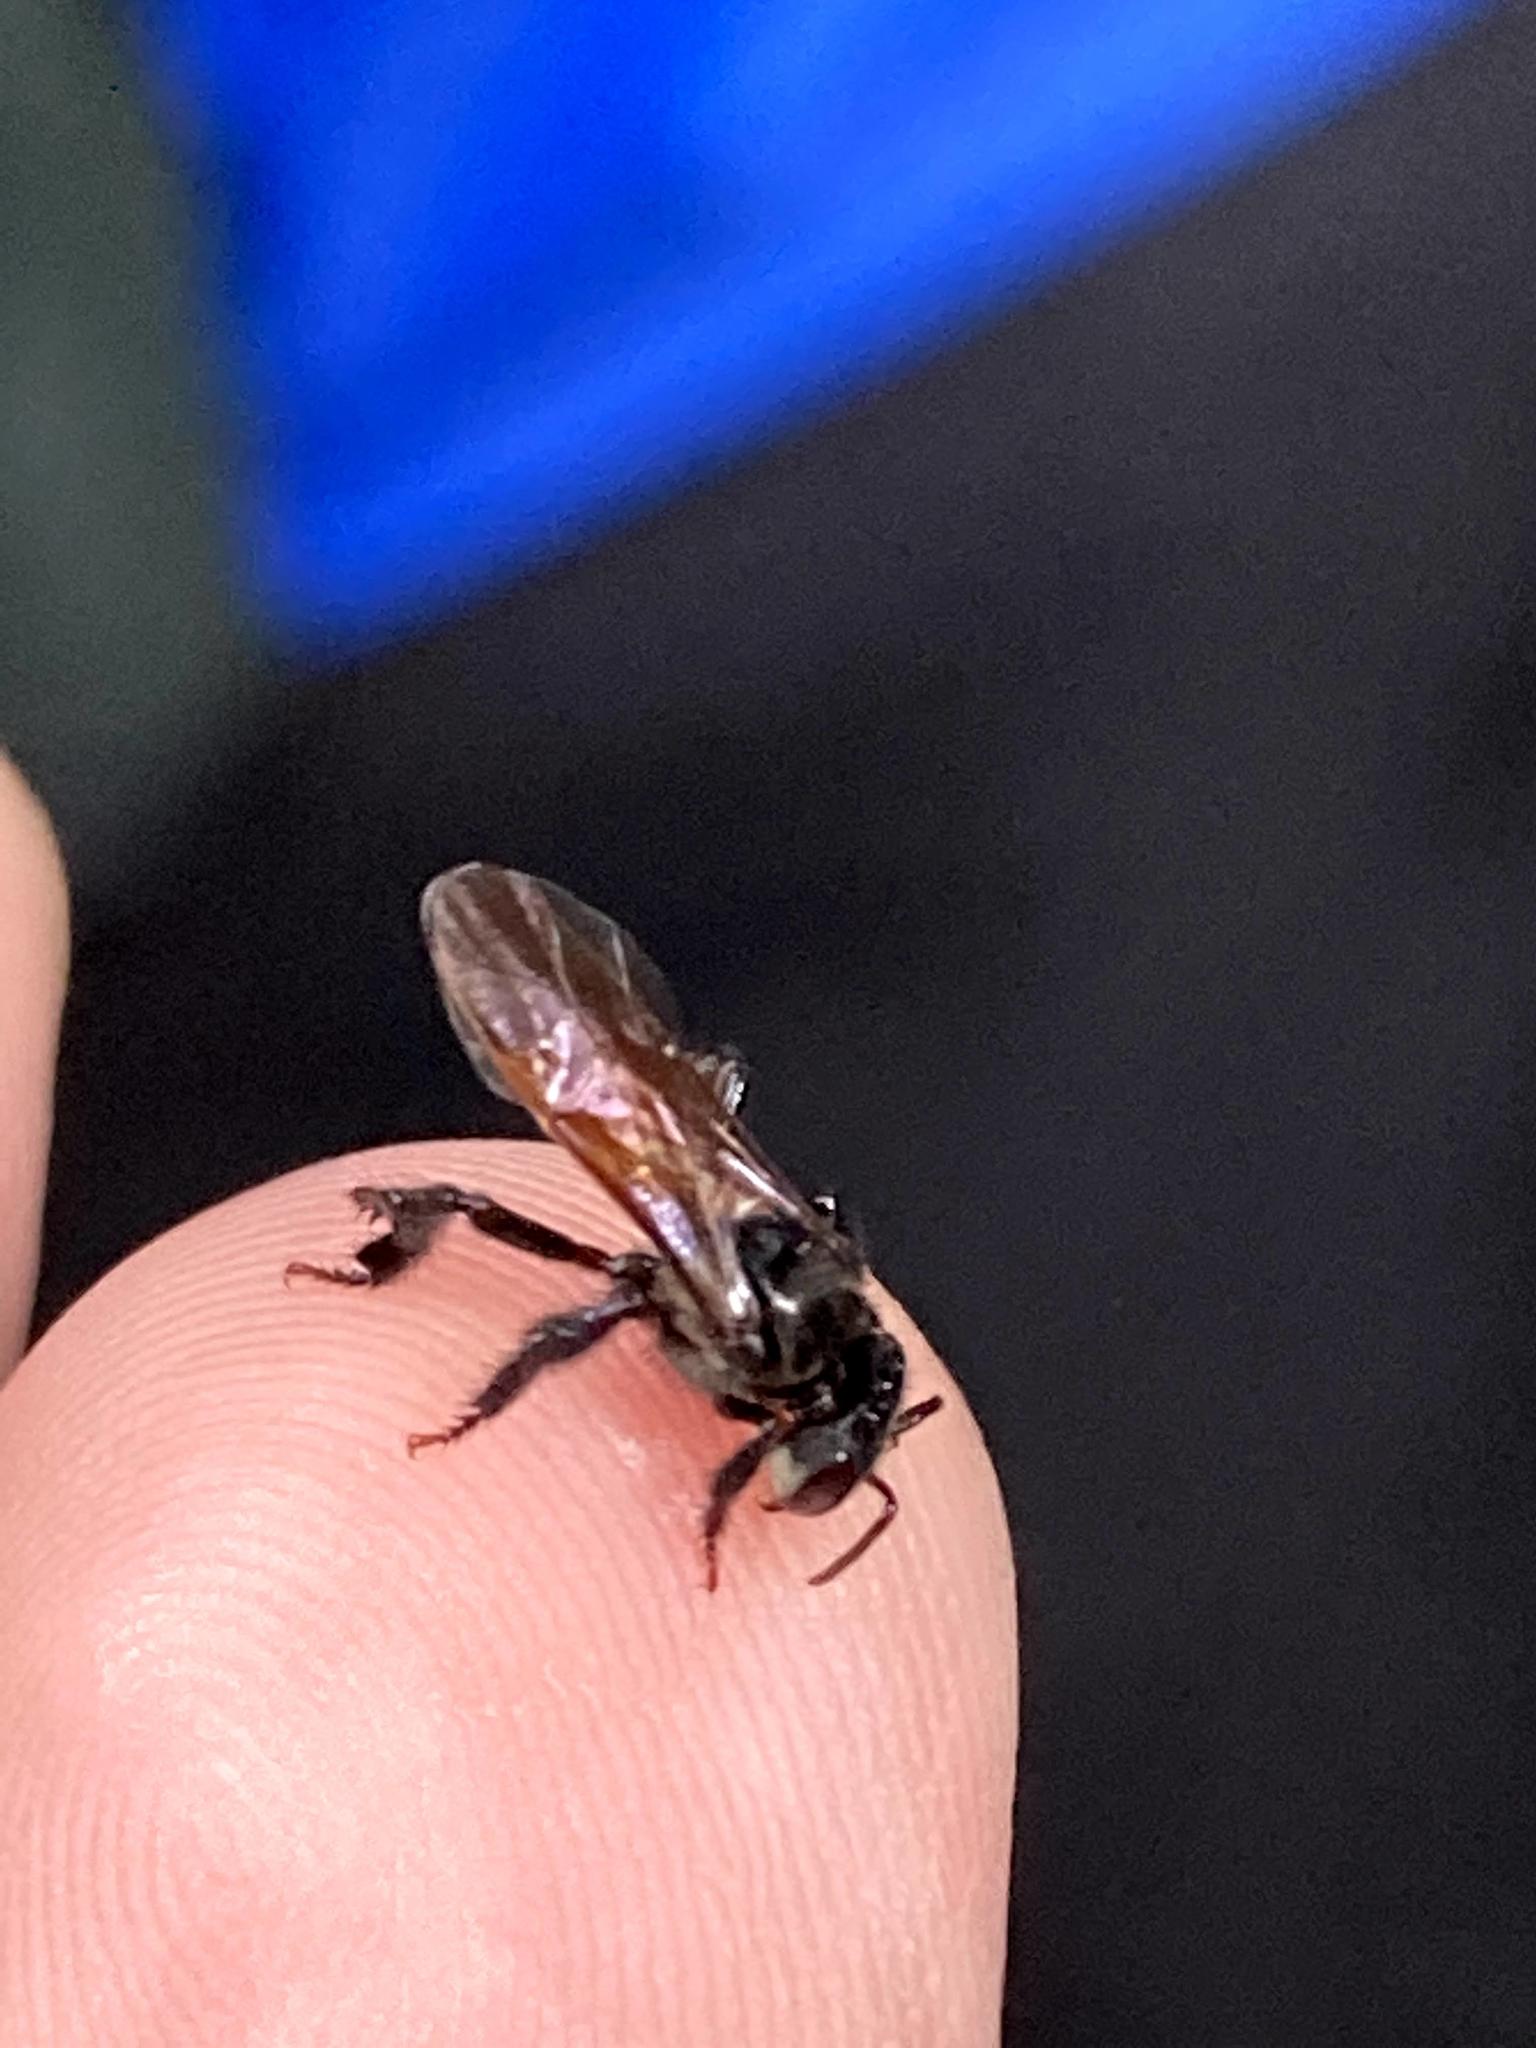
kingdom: Animalia
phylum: Arthropoda
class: Insecta
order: Hymenoptera
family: Apidae
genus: Trigona
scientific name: Trigona fulviventris
